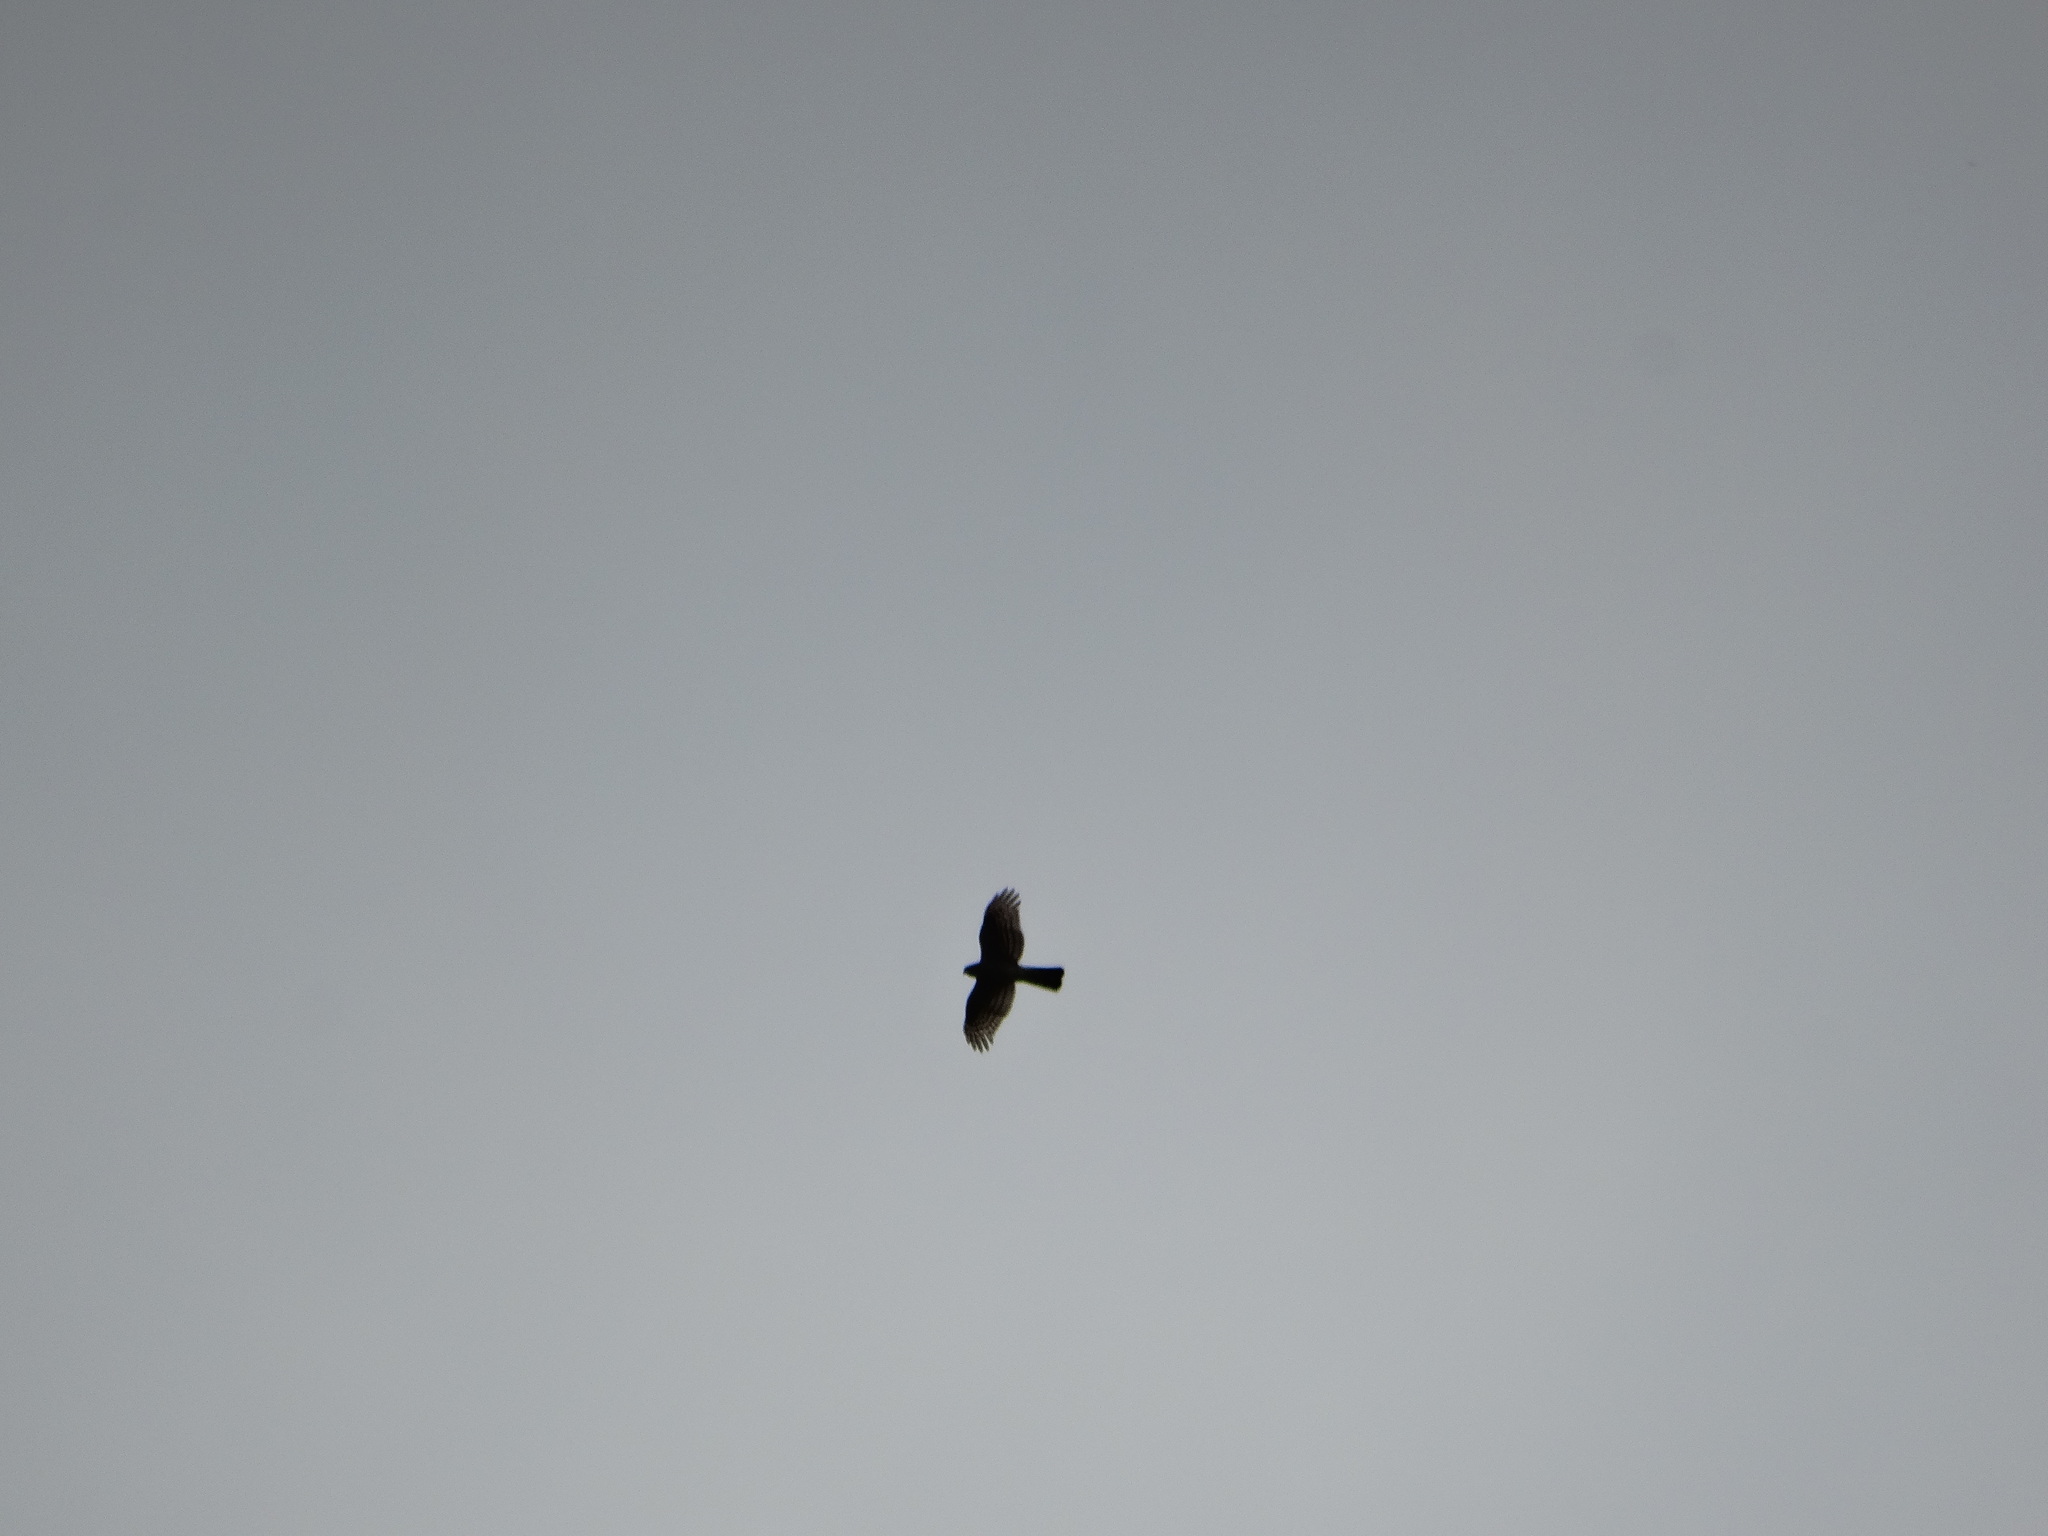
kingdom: Animalia
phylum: Chordata
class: Aves
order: Accipitriformes
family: Accipitridae
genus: Accipiter
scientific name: Accipiter striatus
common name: Sharp-shinned hawk
